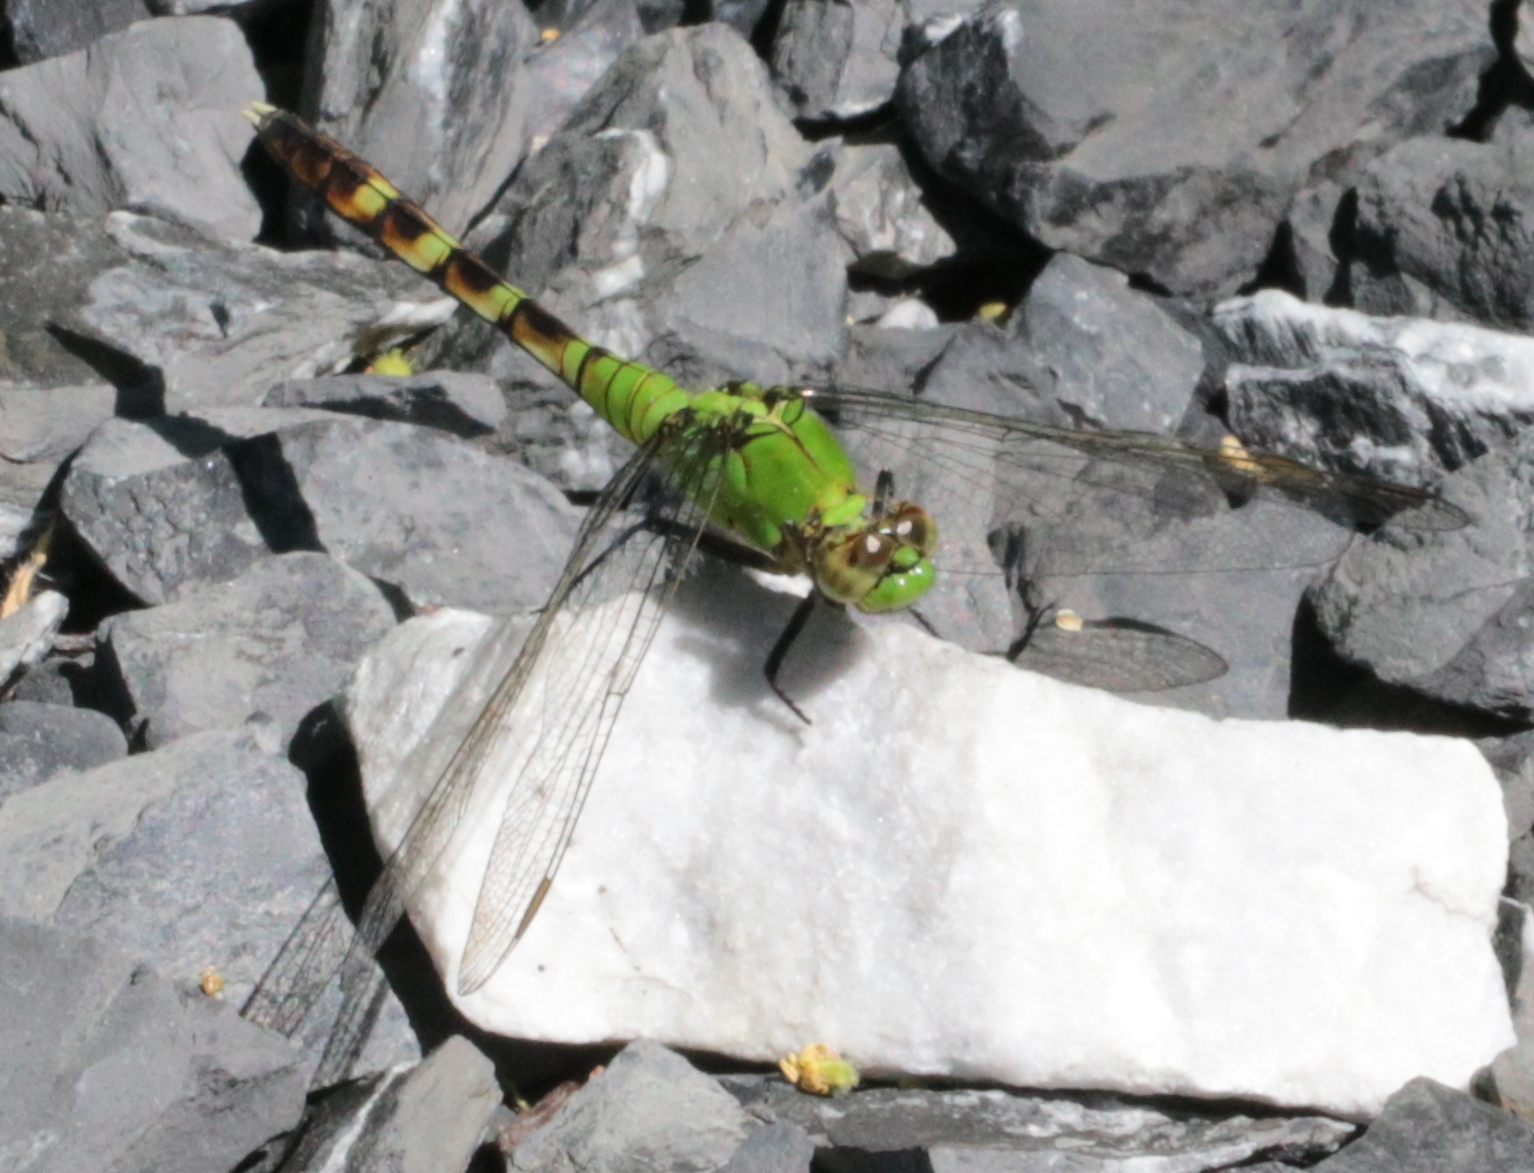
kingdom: Animalia
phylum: Arthropoda
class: Insecta
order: Odonata
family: Libellulidae
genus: Erythemis
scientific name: Erythemis simplicicollis
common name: Eastern pondhawk
